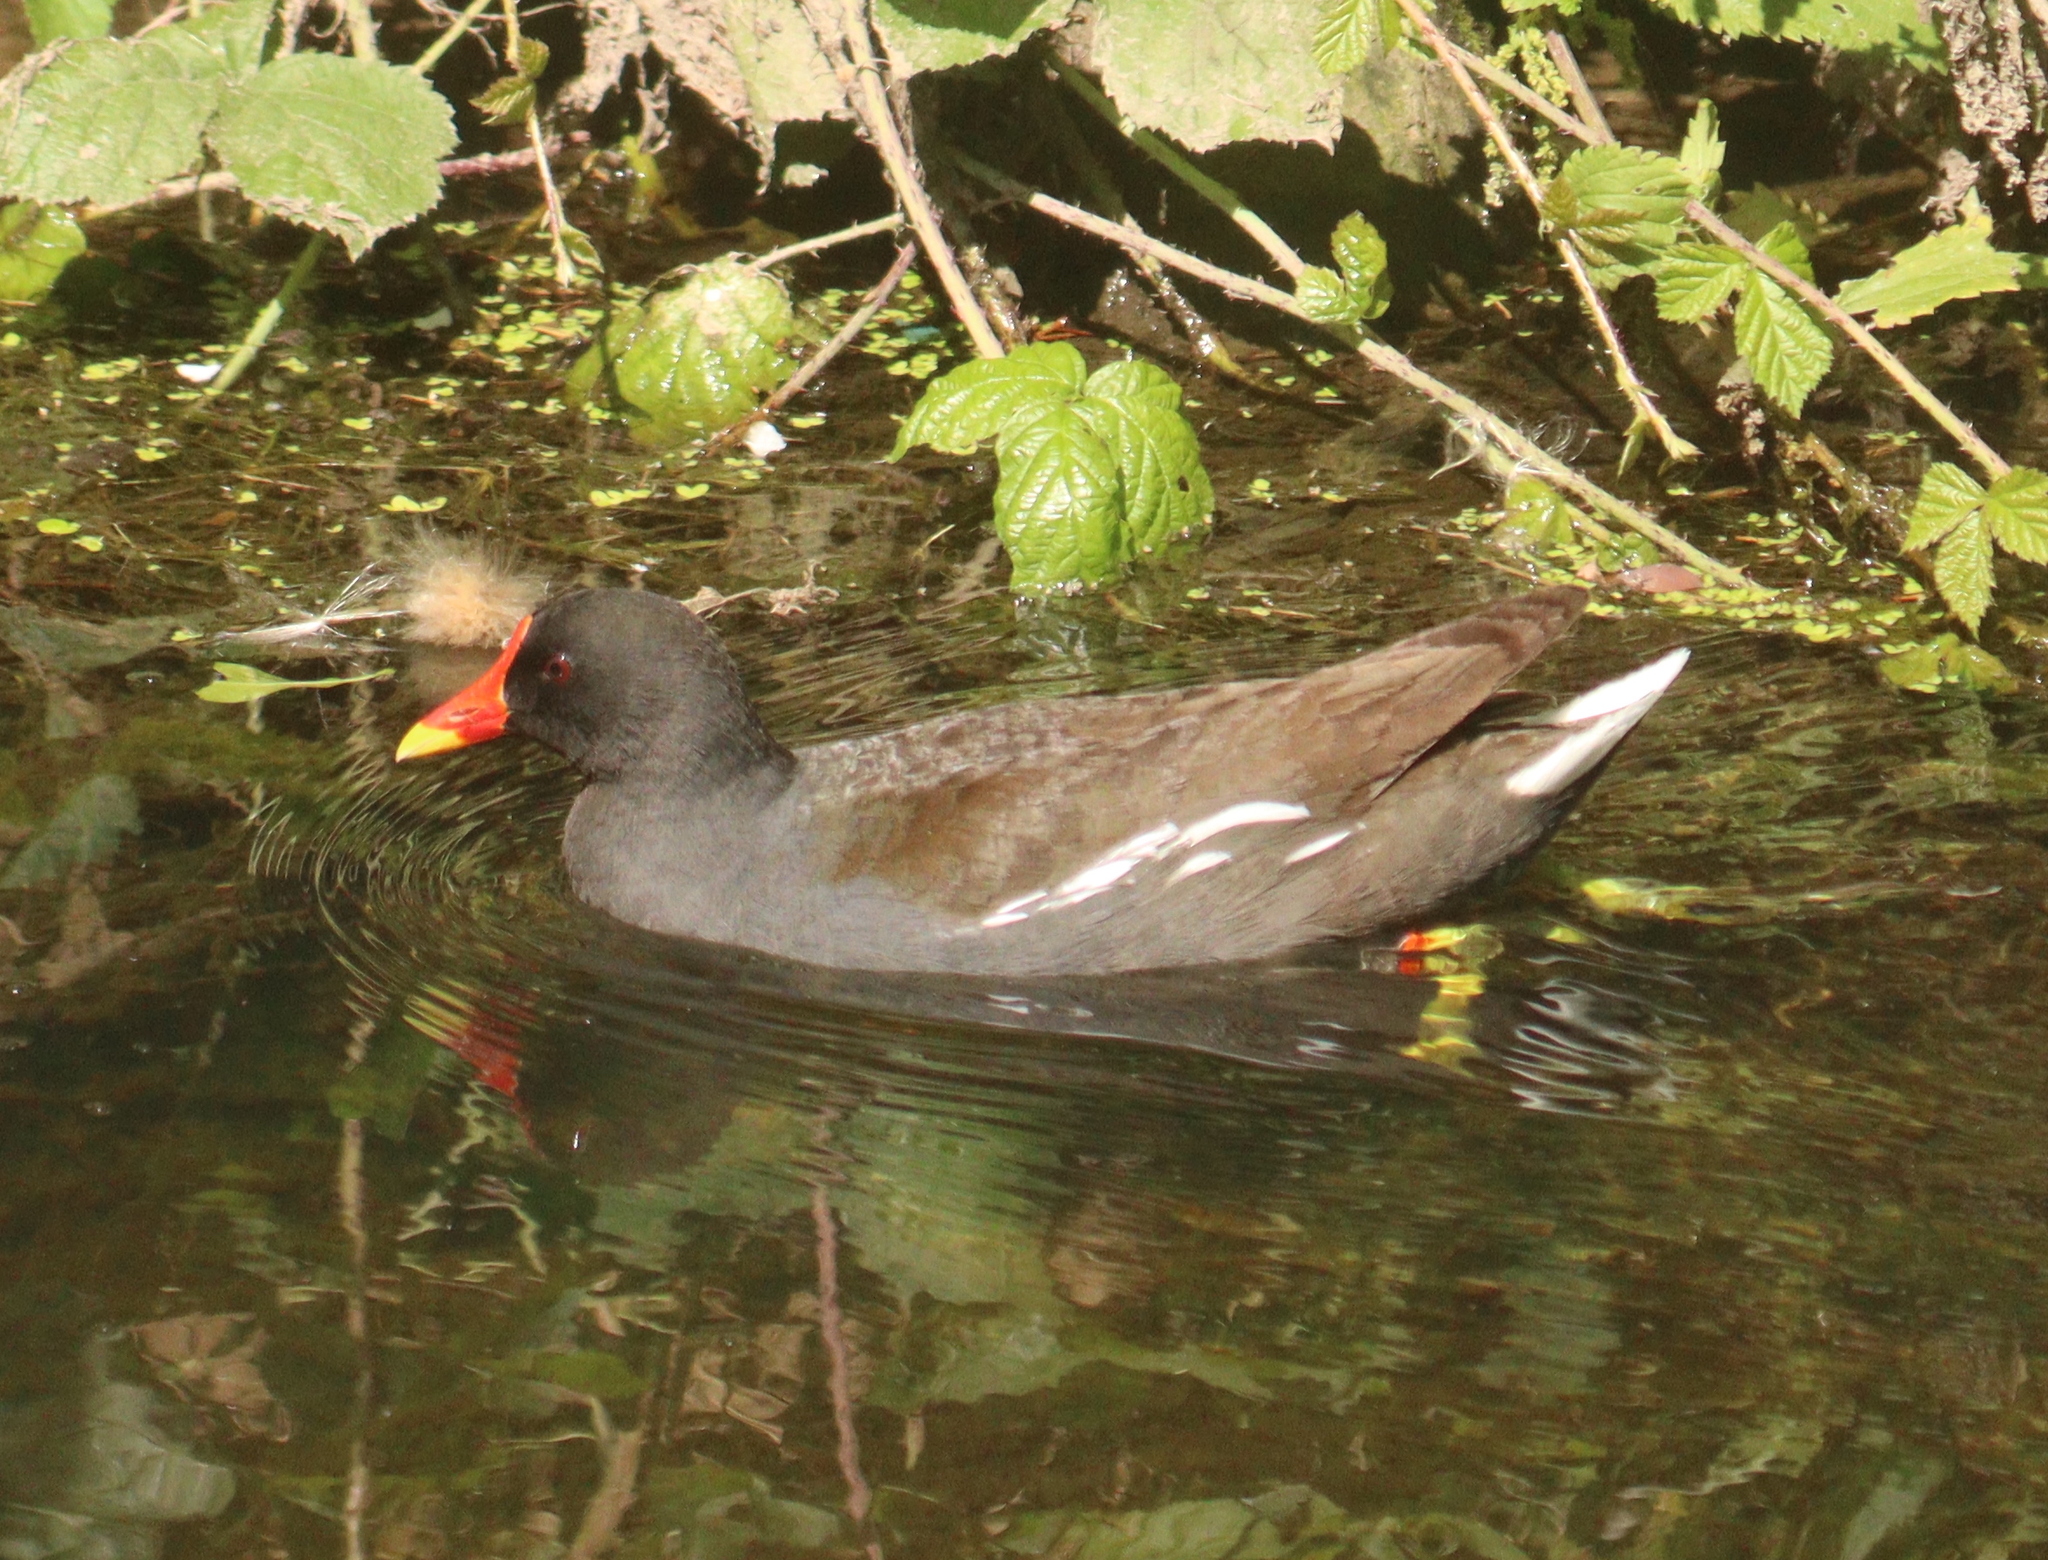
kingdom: Animalia
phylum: Chordata
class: Aves
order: Gruiformes
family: Rallidae
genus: Gallinula
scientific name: Gallinula chloropus
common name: Common moorhen
